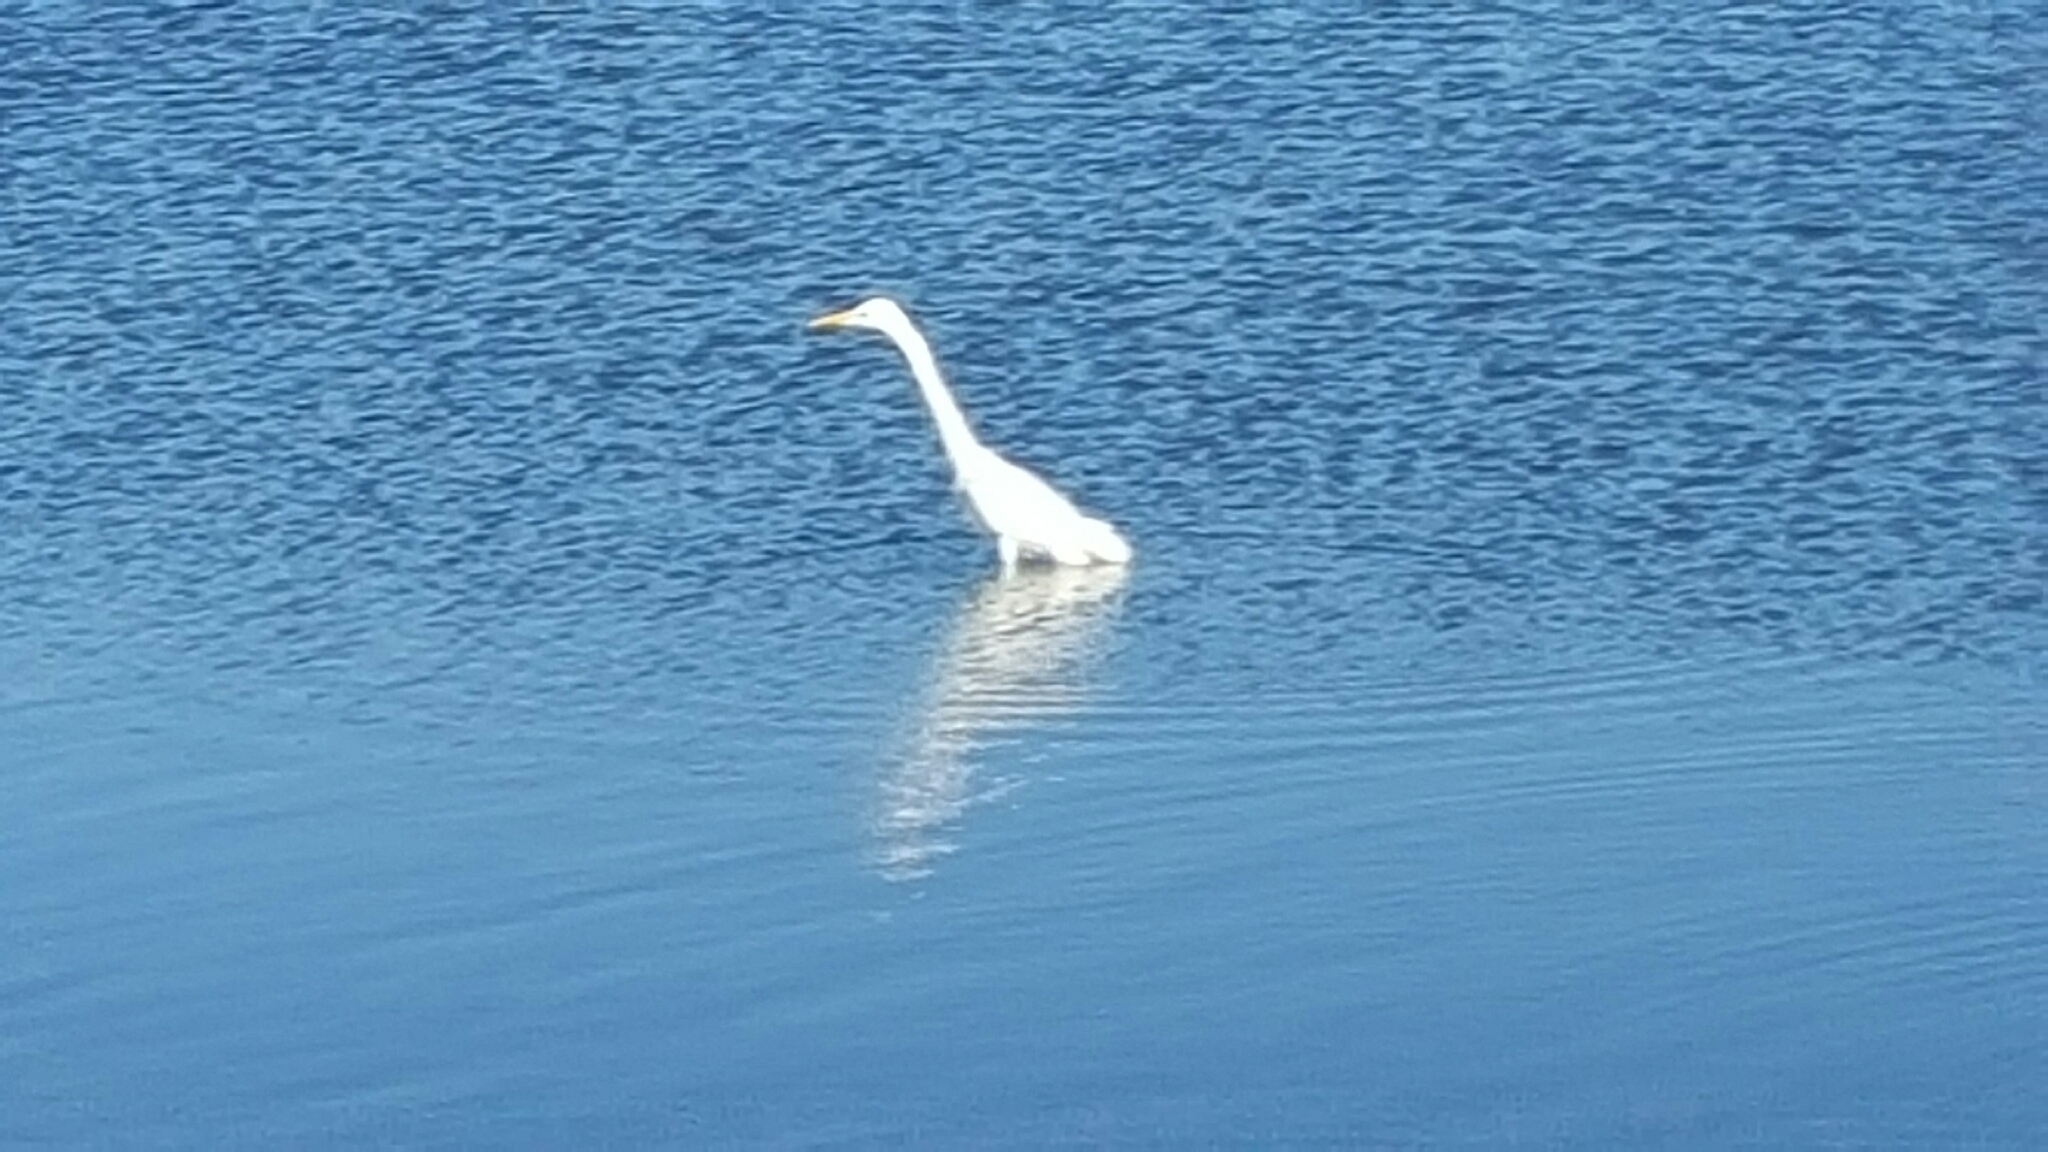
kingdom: Animalia
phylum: Chordata
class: Aves
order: Pelecaniformes
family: Ardeidae
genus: Ardea
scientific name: Ardea alba
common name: Great egret
